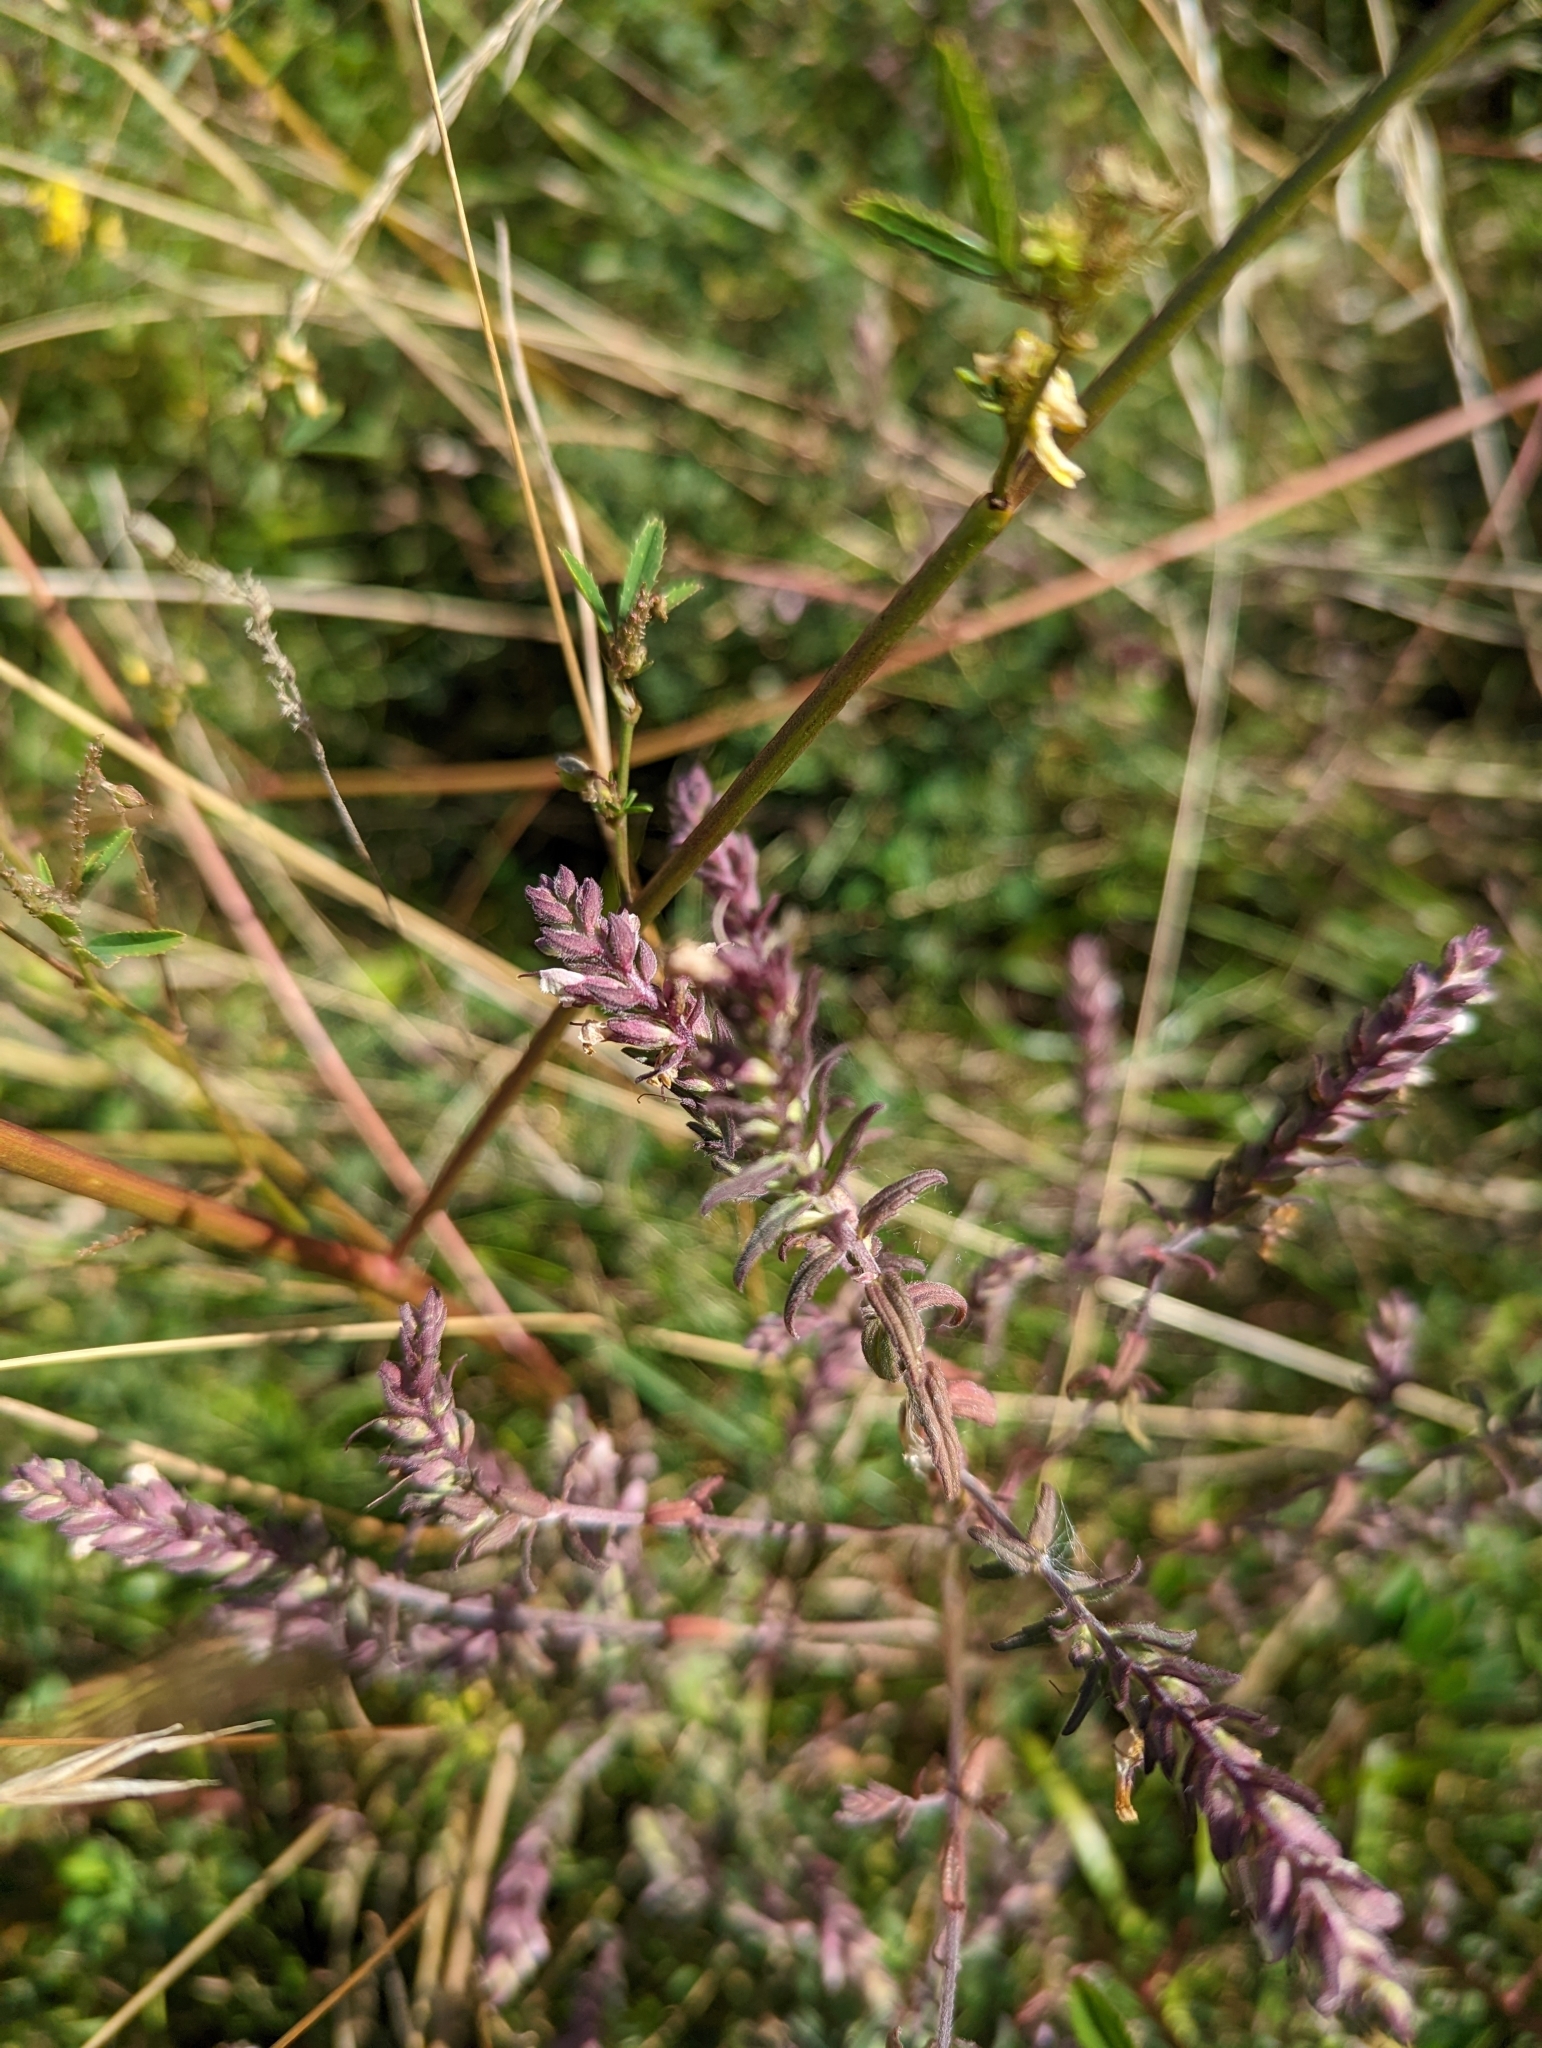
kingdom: Plantae
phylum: Tracheophyta
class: Magnoliopsida
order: Lamiales
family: Orobanchaceae
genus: Odontites
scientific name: Odontites vernus
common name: Red bartsia
